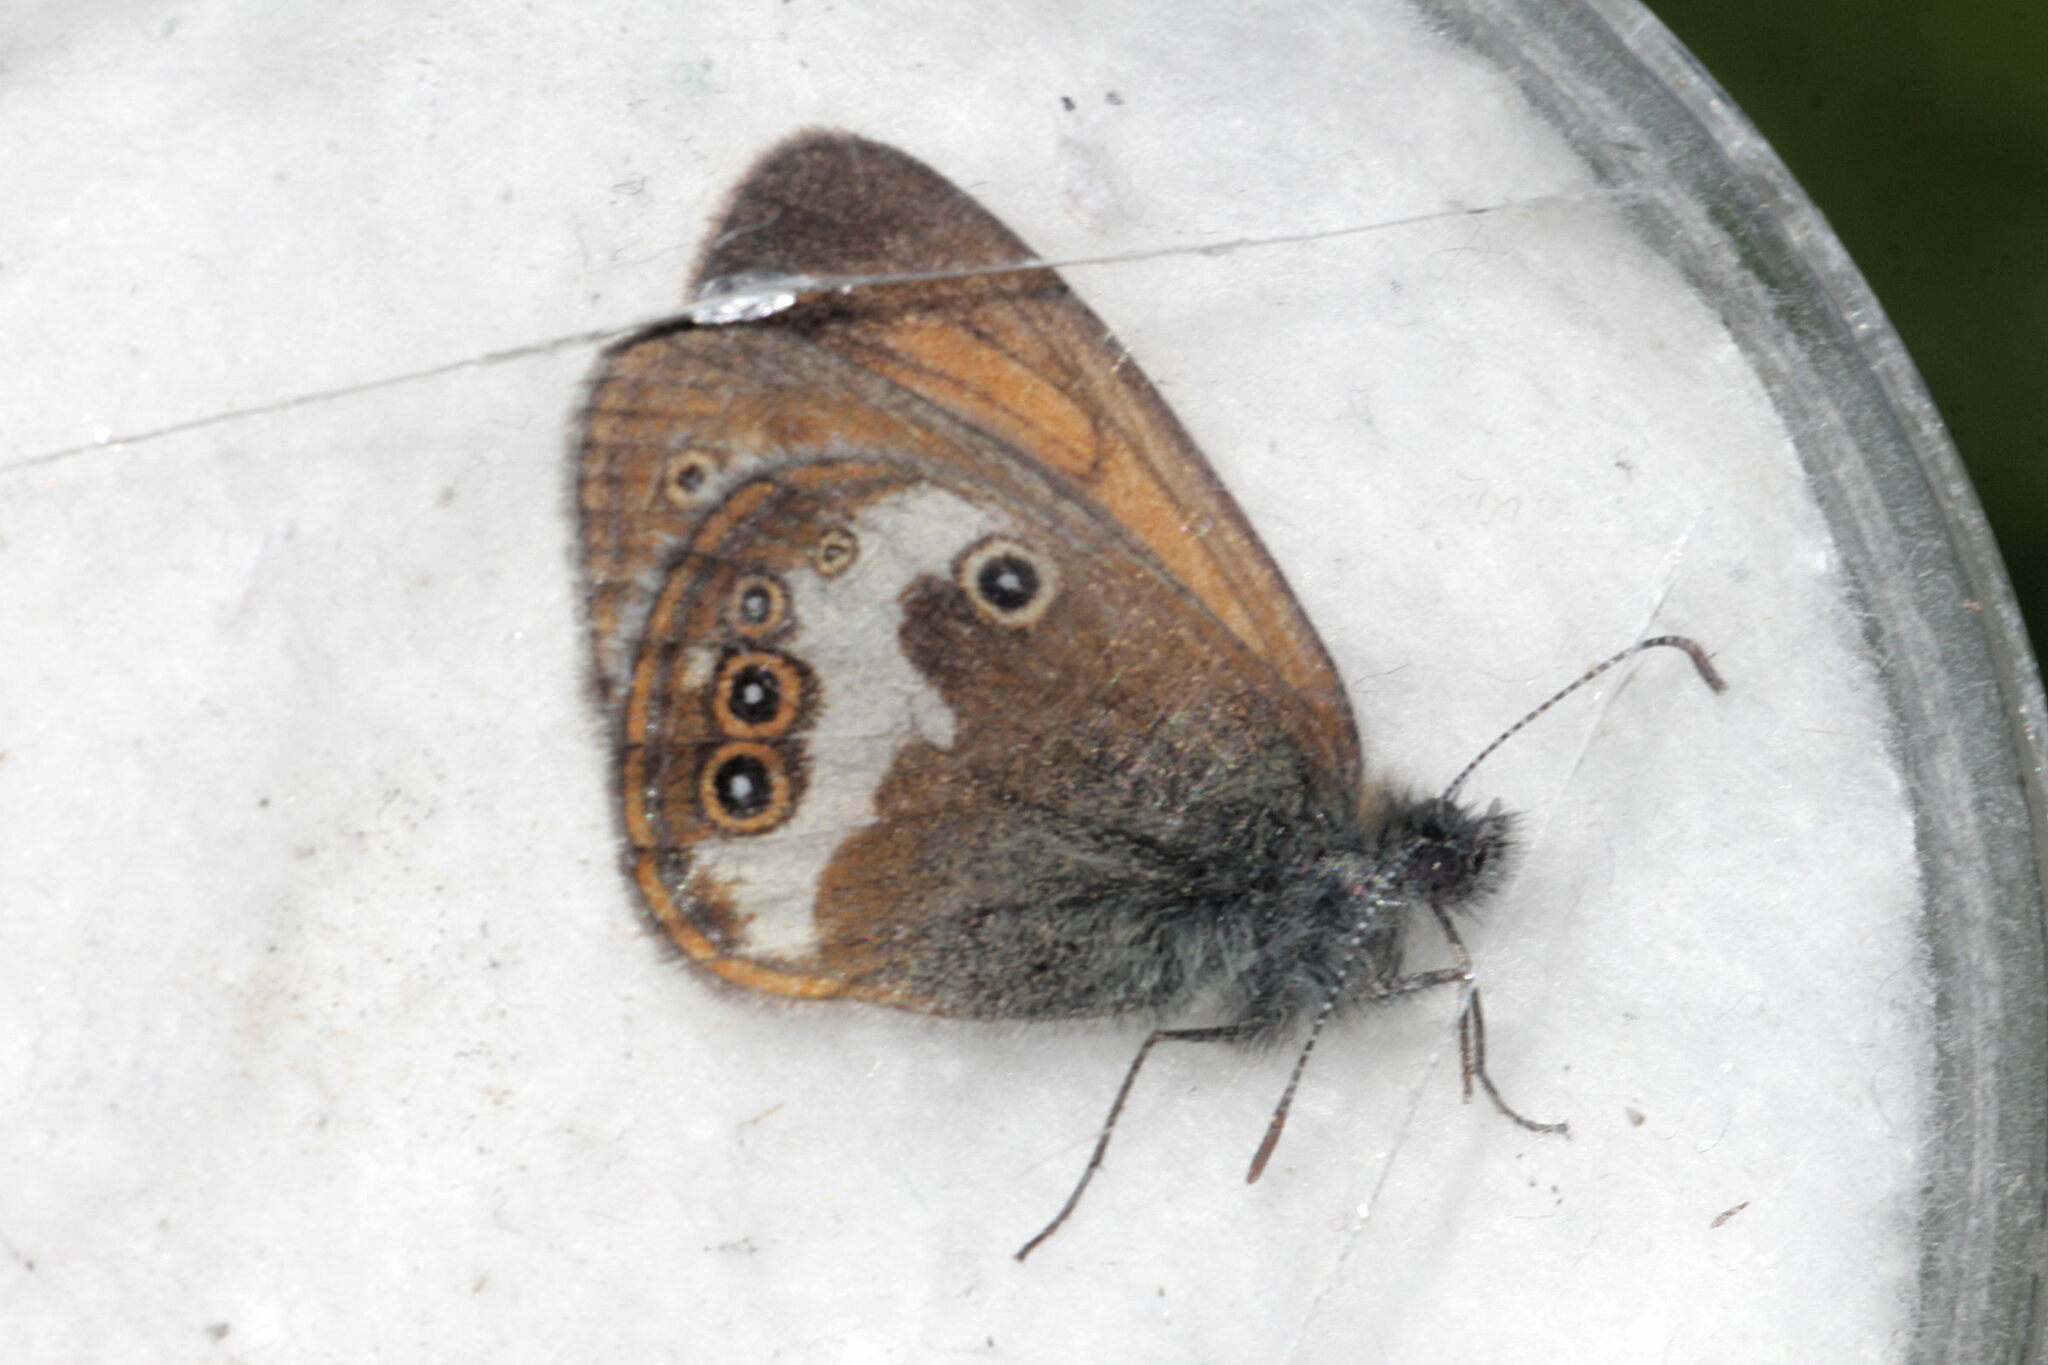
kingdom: Animalia
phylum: Arthropoda
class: Insecta
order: Lepidoptera
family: Nymphalidae
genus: Coenonympha
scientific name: Coenonympha arcania
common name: Pearly heath
